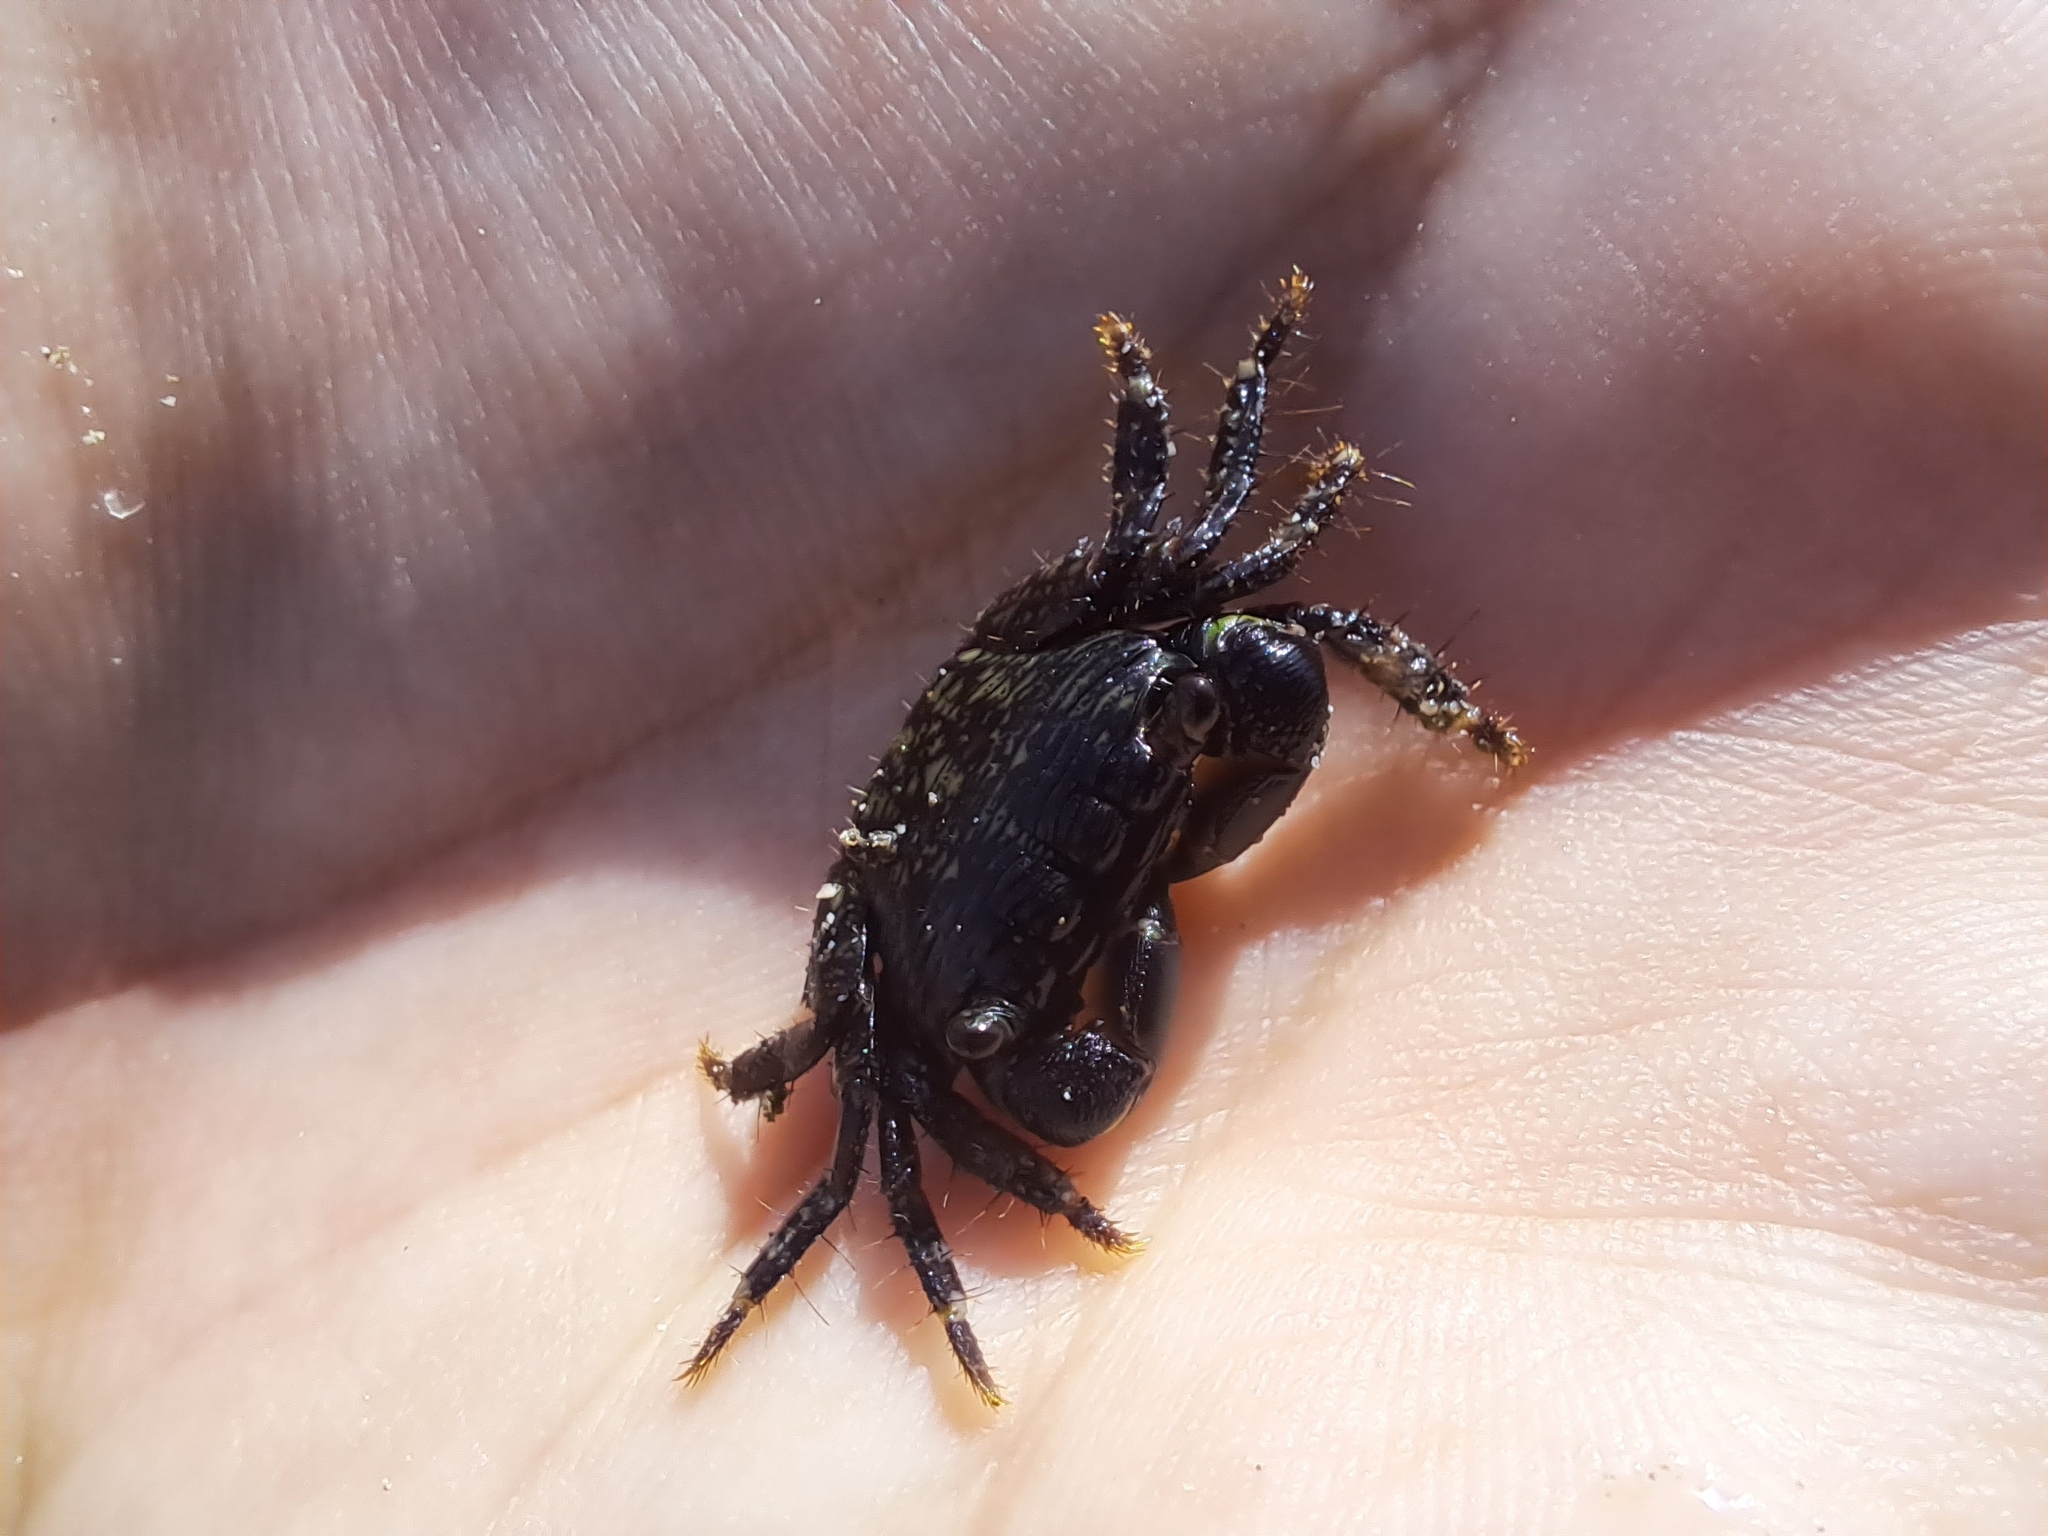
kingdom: Animalia
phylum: Arthropoda
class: Malacostraca
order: Decapoda
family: Grapsidae
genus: Pachygrapsus
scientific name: Pachygrapsus socius
